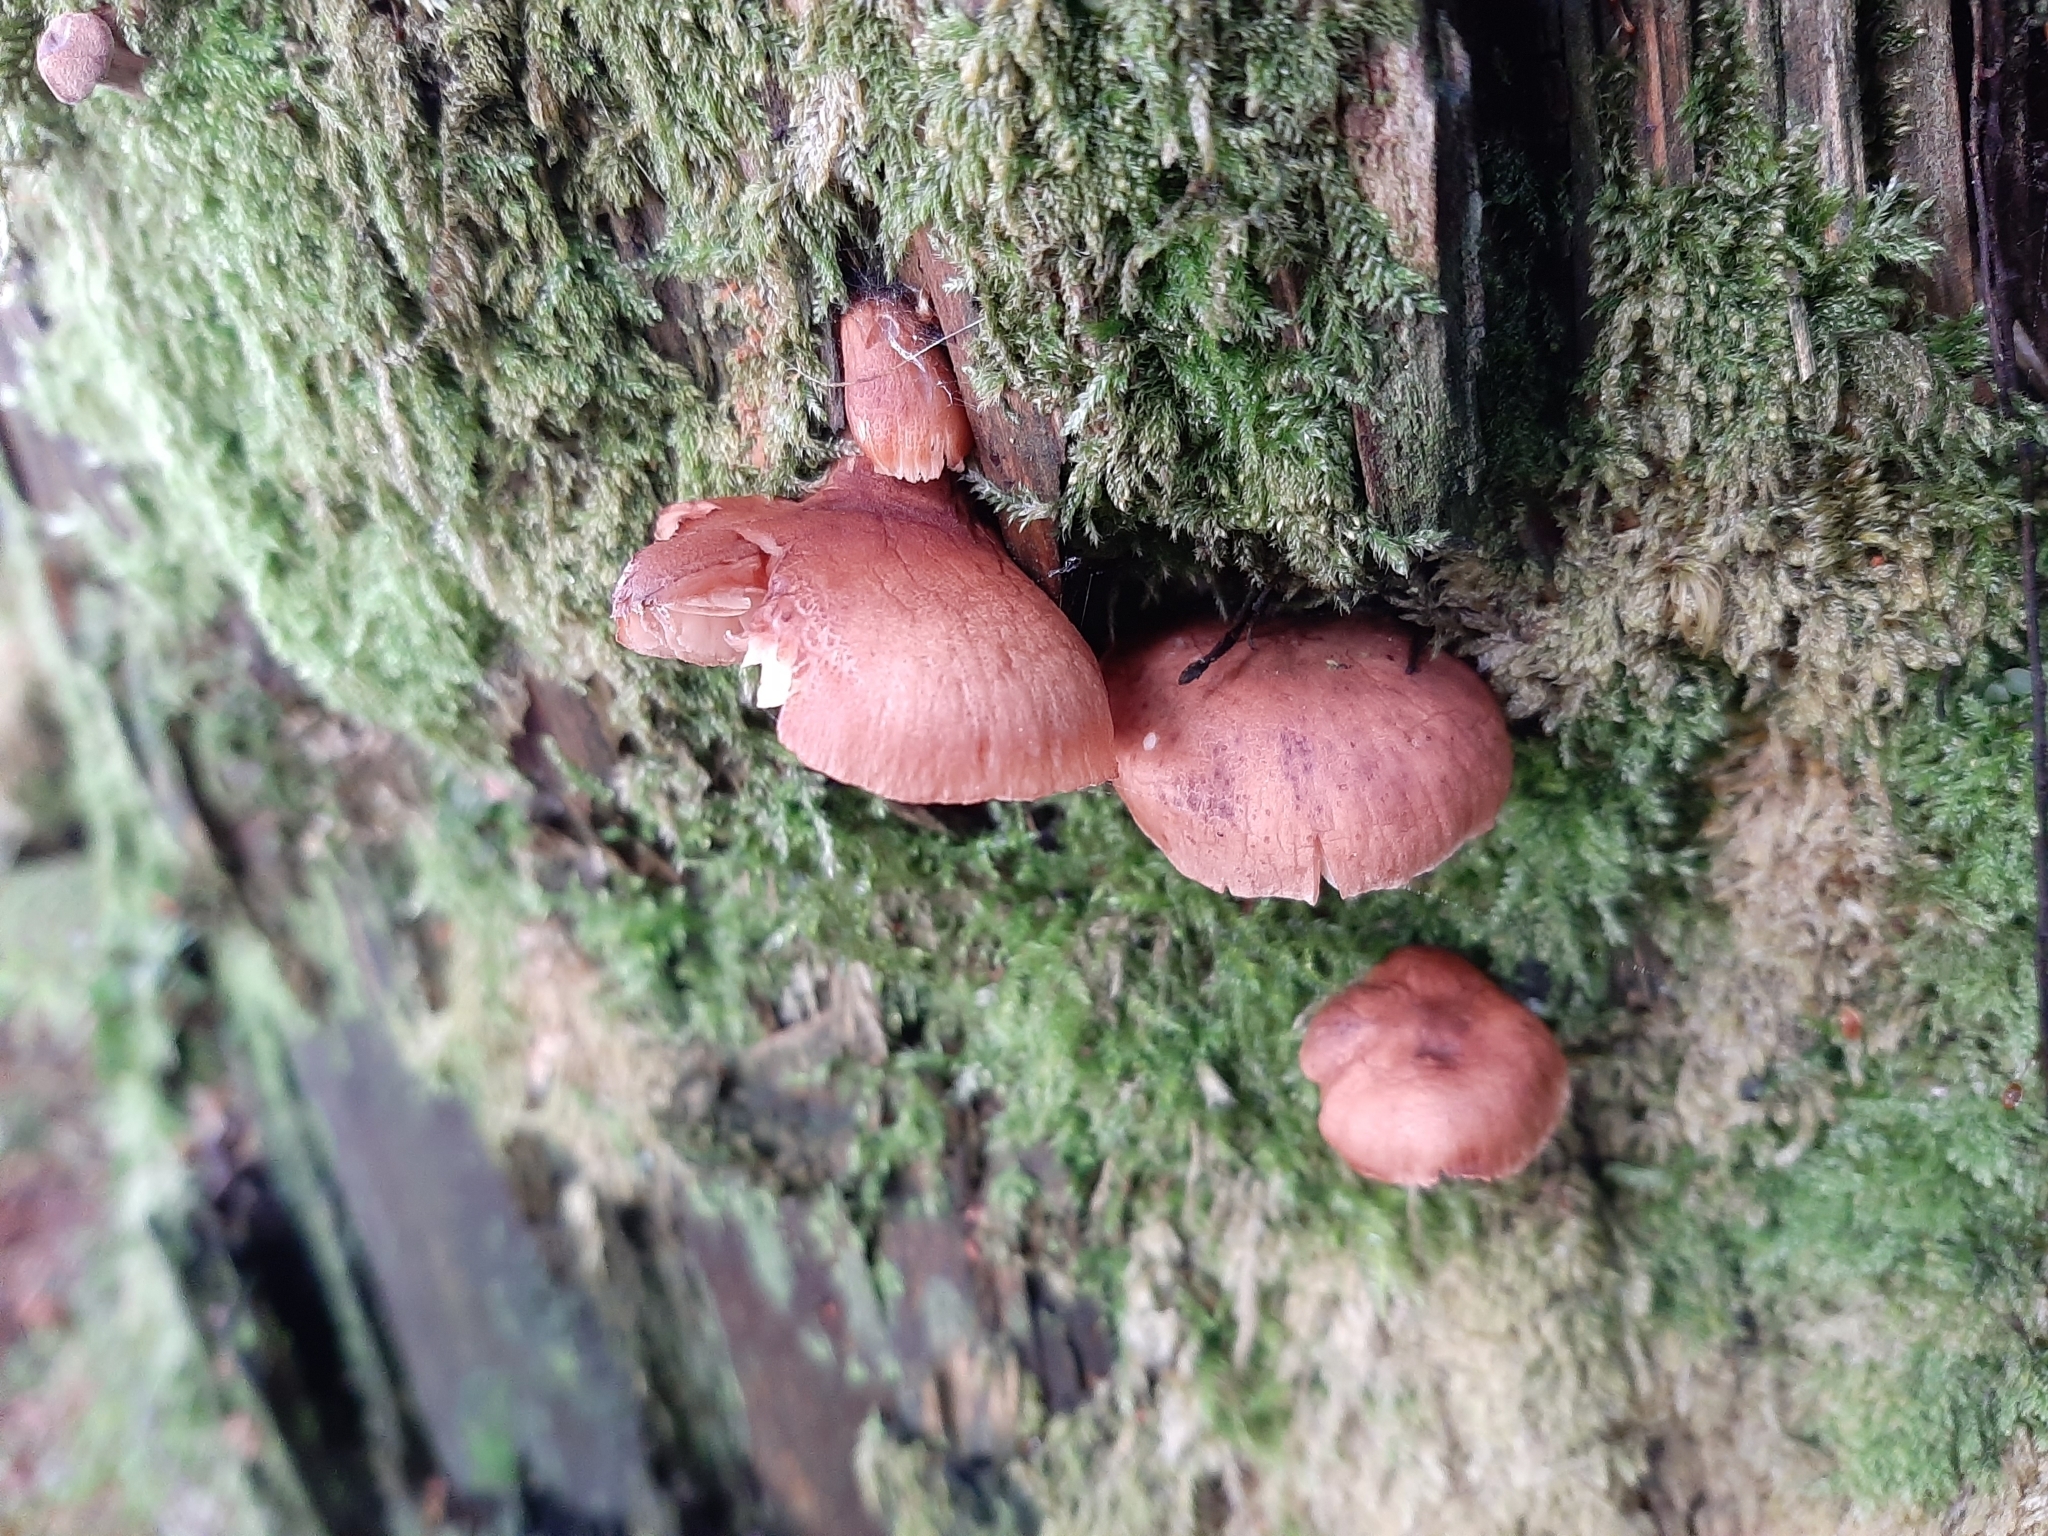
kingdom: Fungi
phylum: Basidiomycota
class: Agaricomycetes
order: Gloeophyllales
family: Gloeophyllaceae
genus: Neolentinus
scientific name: Neolentinus kauffmanii
